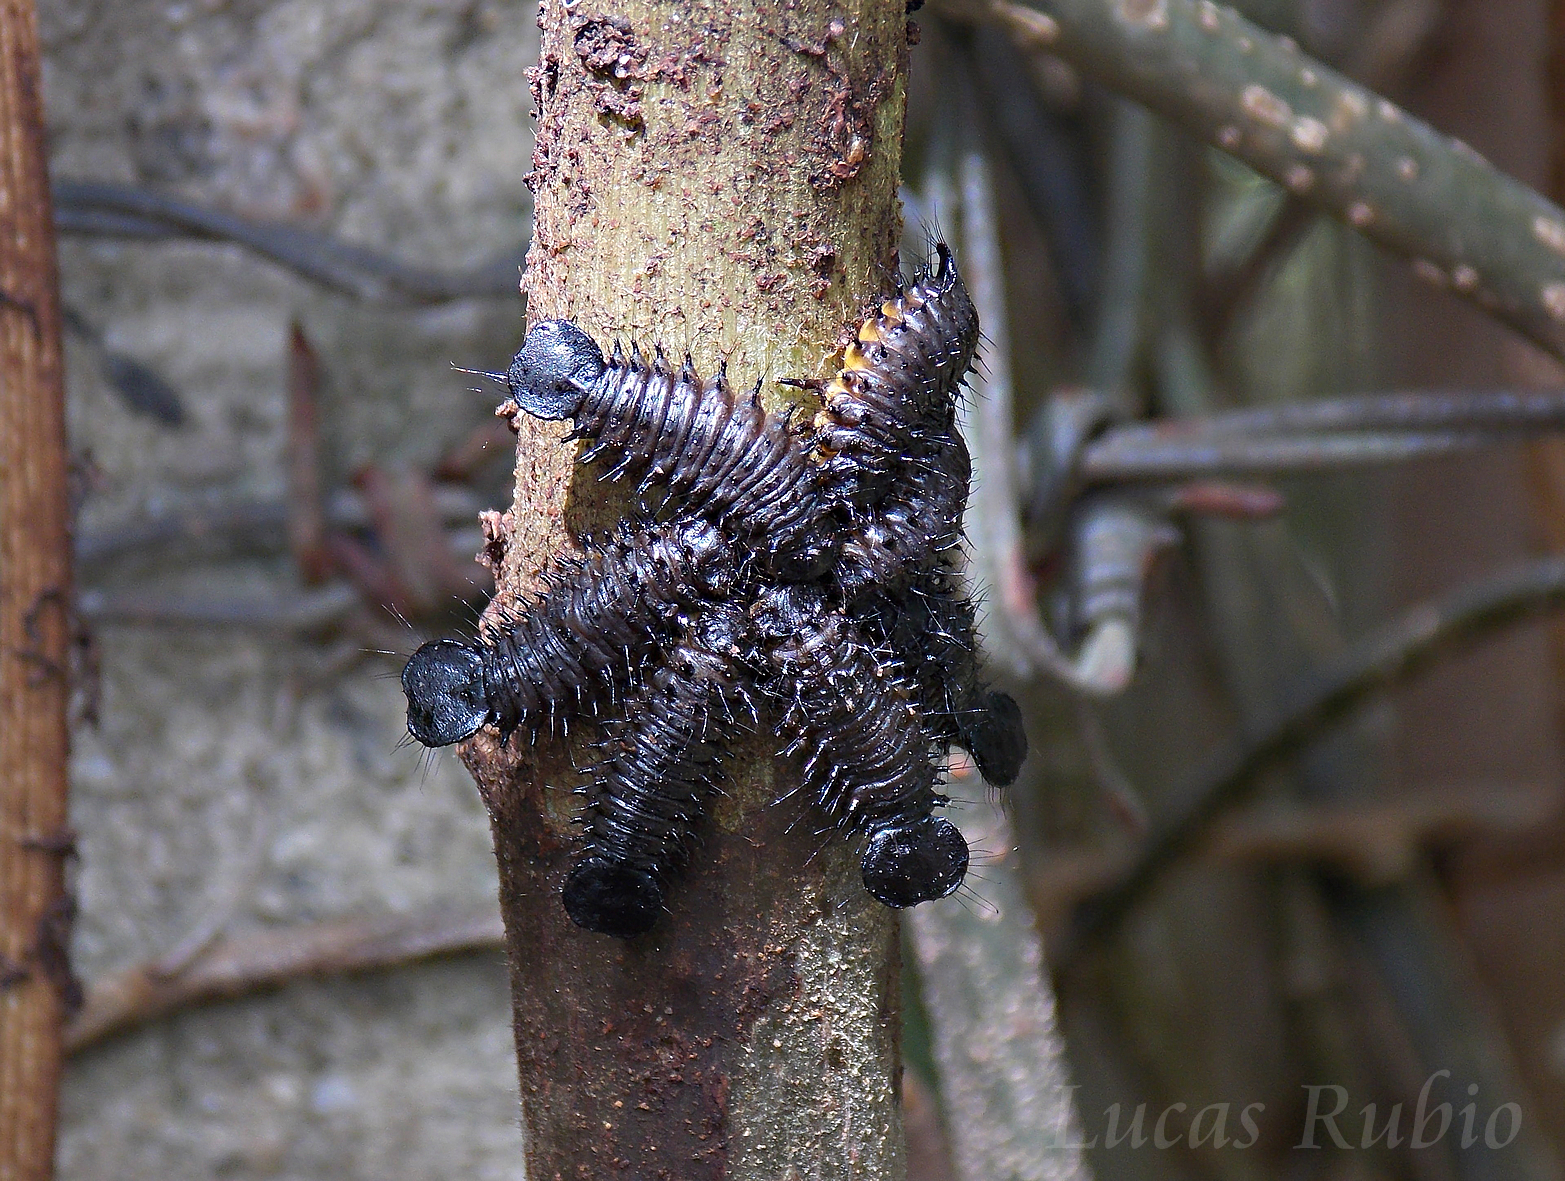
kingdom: Animalia
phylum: Arthropoda
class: Insecta
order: Coleoptera
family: Chrysomelidae
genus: Coelomera
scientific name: Coelomera
